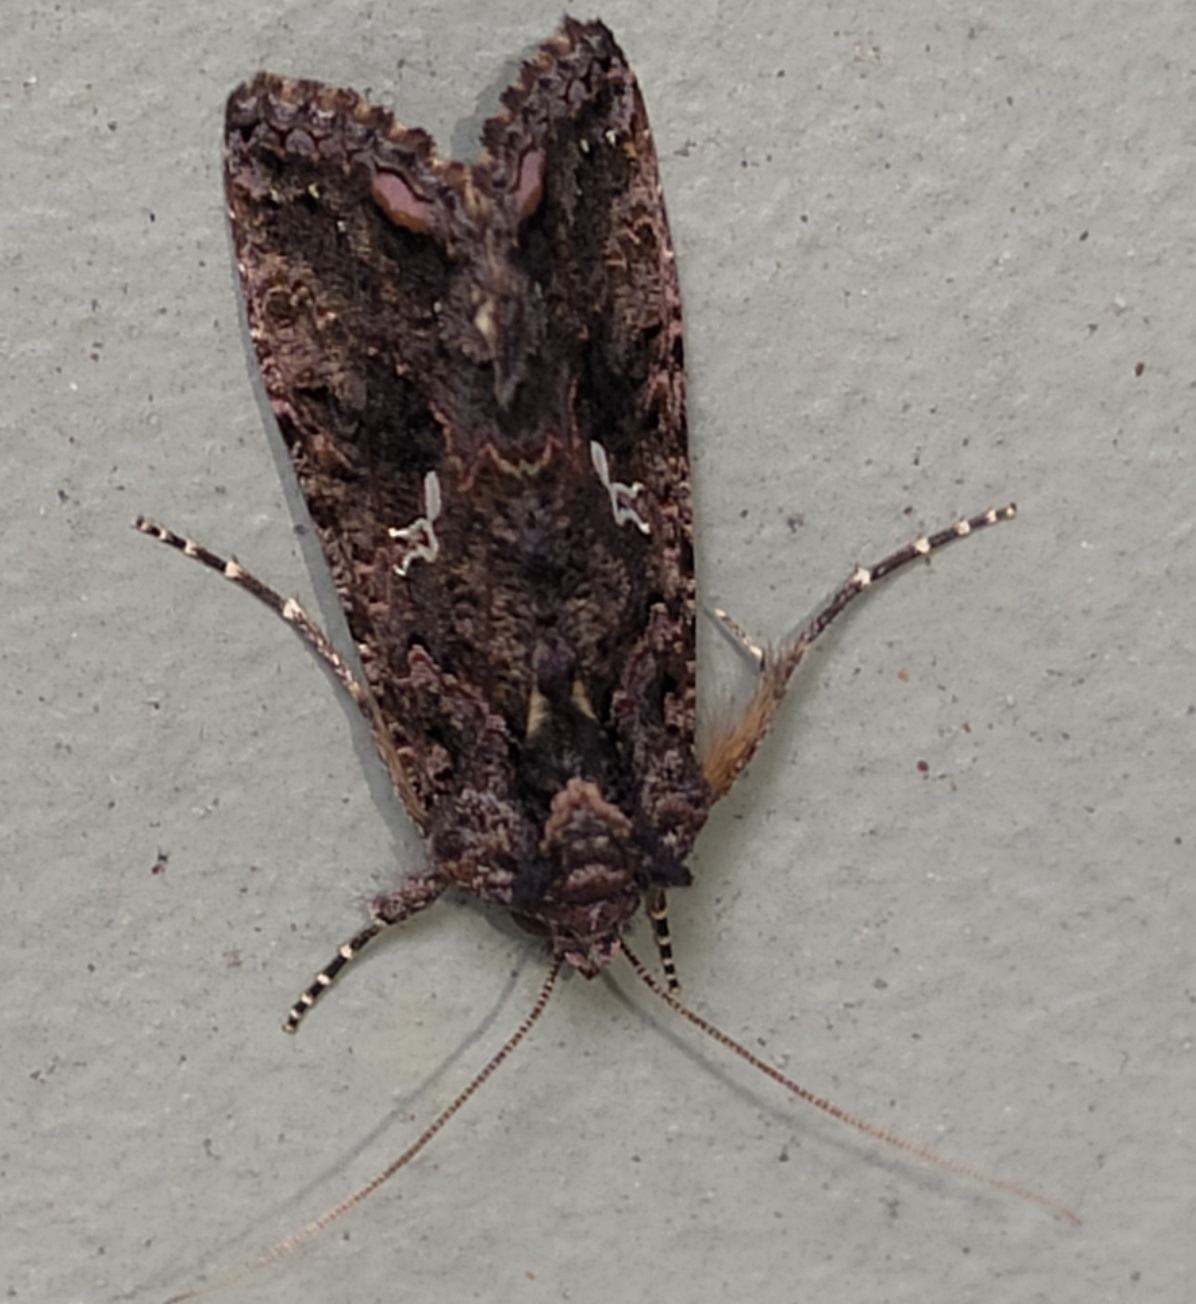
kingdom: Animalia
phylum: Arthropoda
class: Insecta
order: Lepidoptera
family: Noctuidae
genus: Ctenoplusia
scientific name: Ctenoplusia limbirena
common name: Scar bank gem
